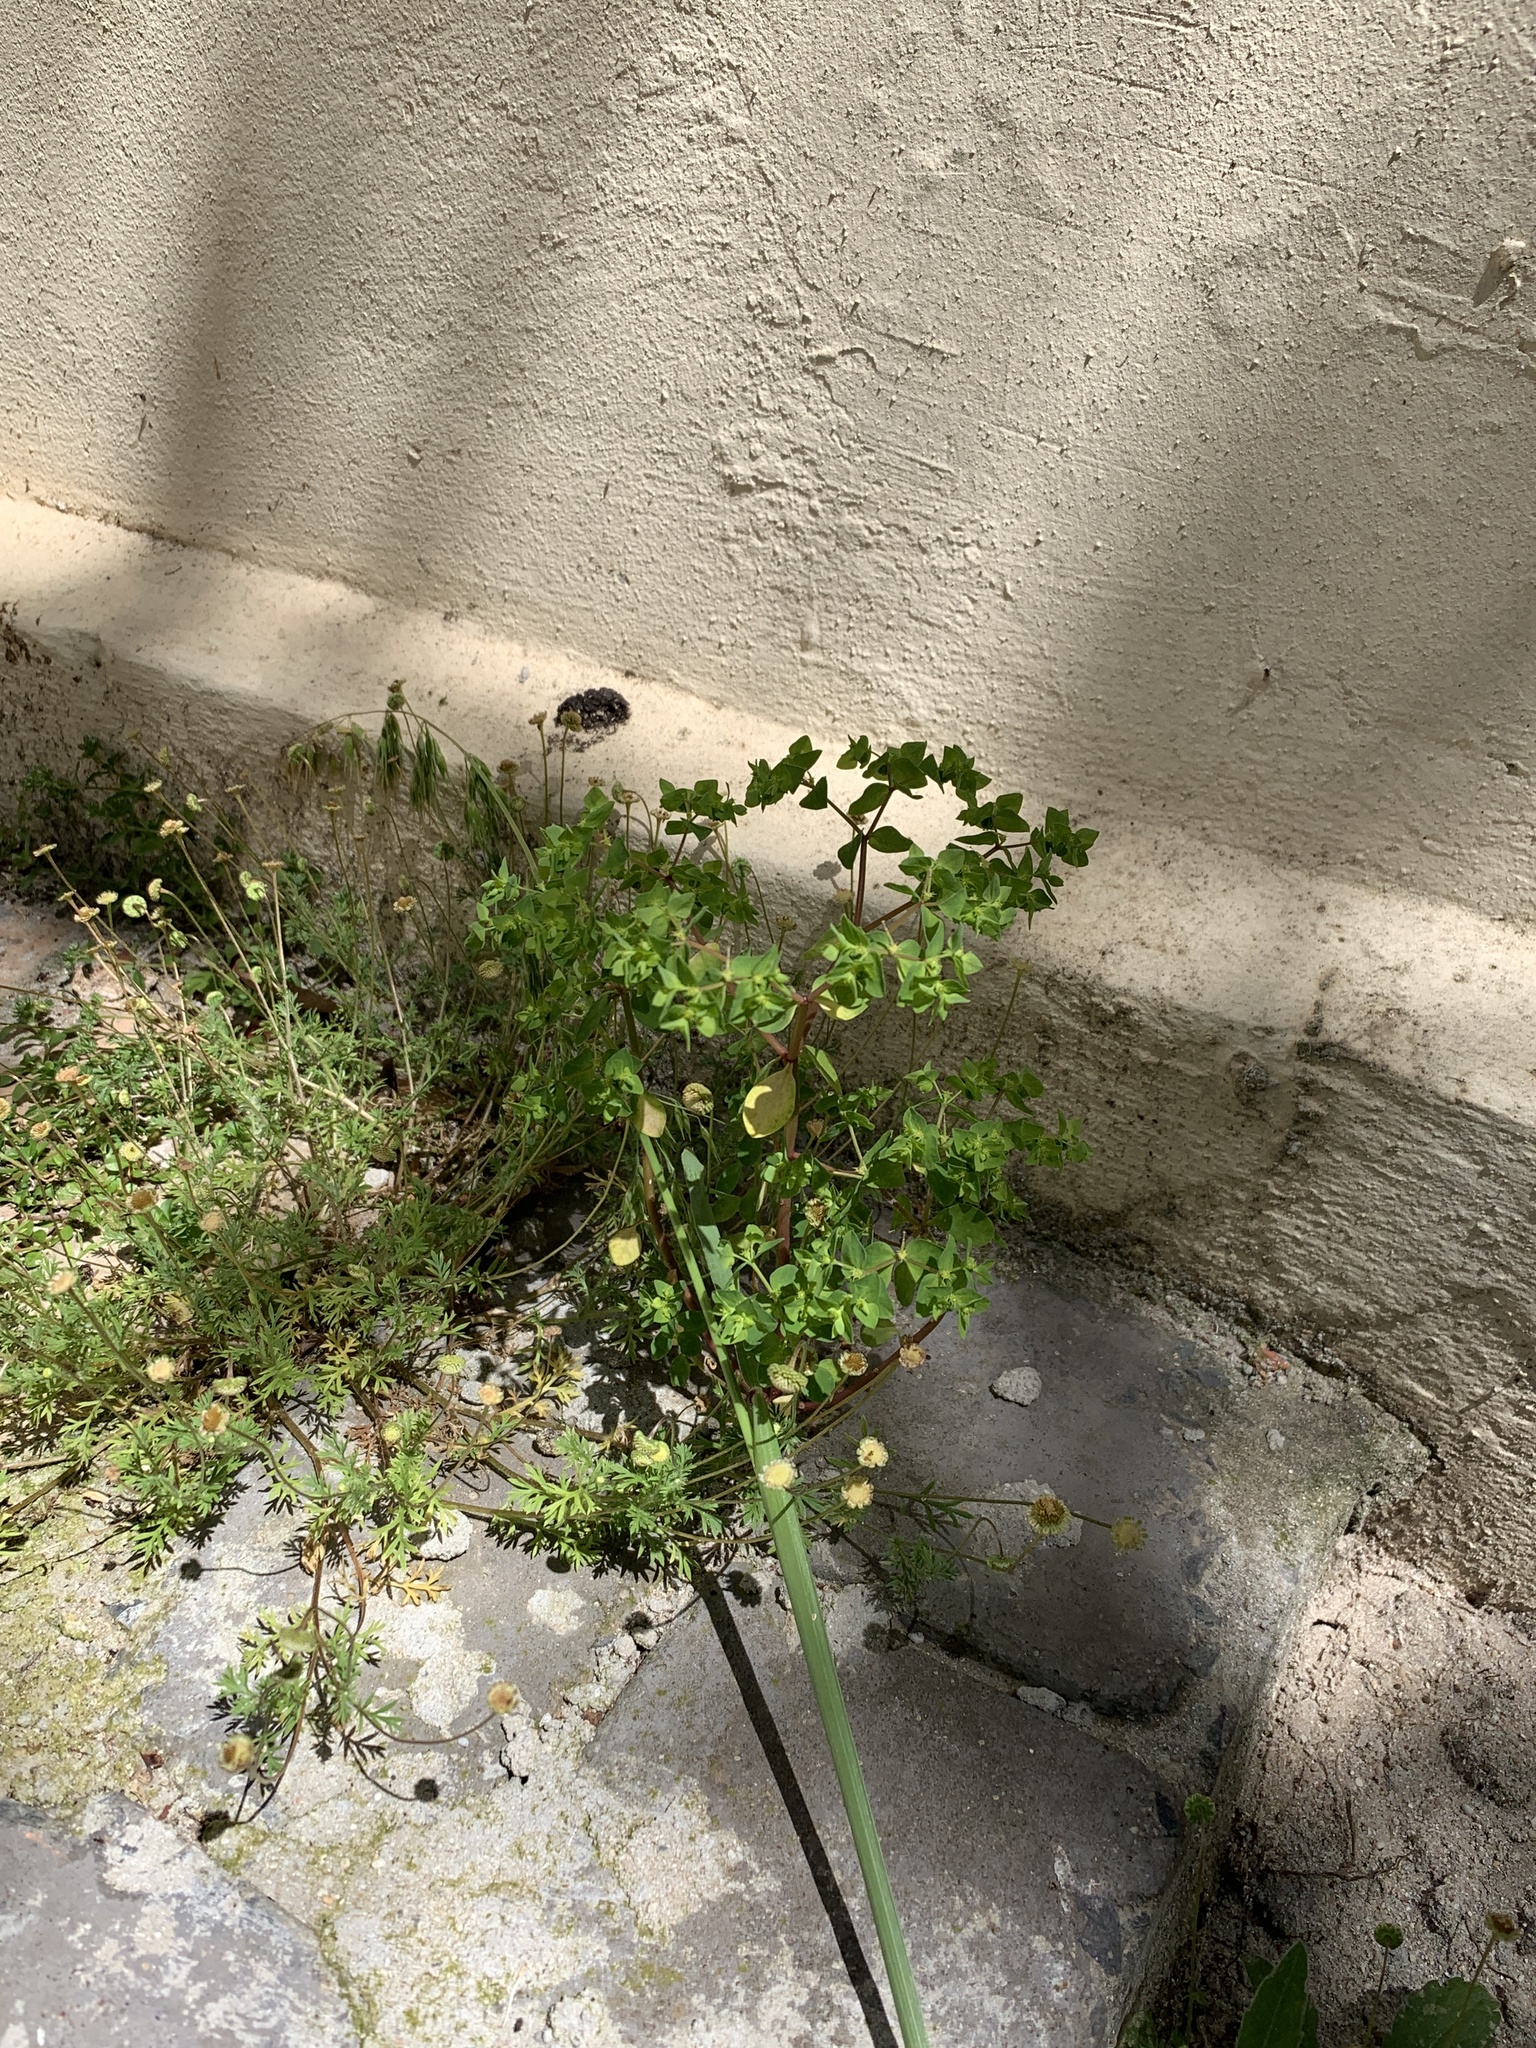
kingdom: Plantae
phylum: Tracheophyta
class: Magnoliopsida
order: Malpighiales
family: Euphorbiaceae
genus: Euphorbia
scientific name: Euphorbia peplus
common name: Petty spurge
